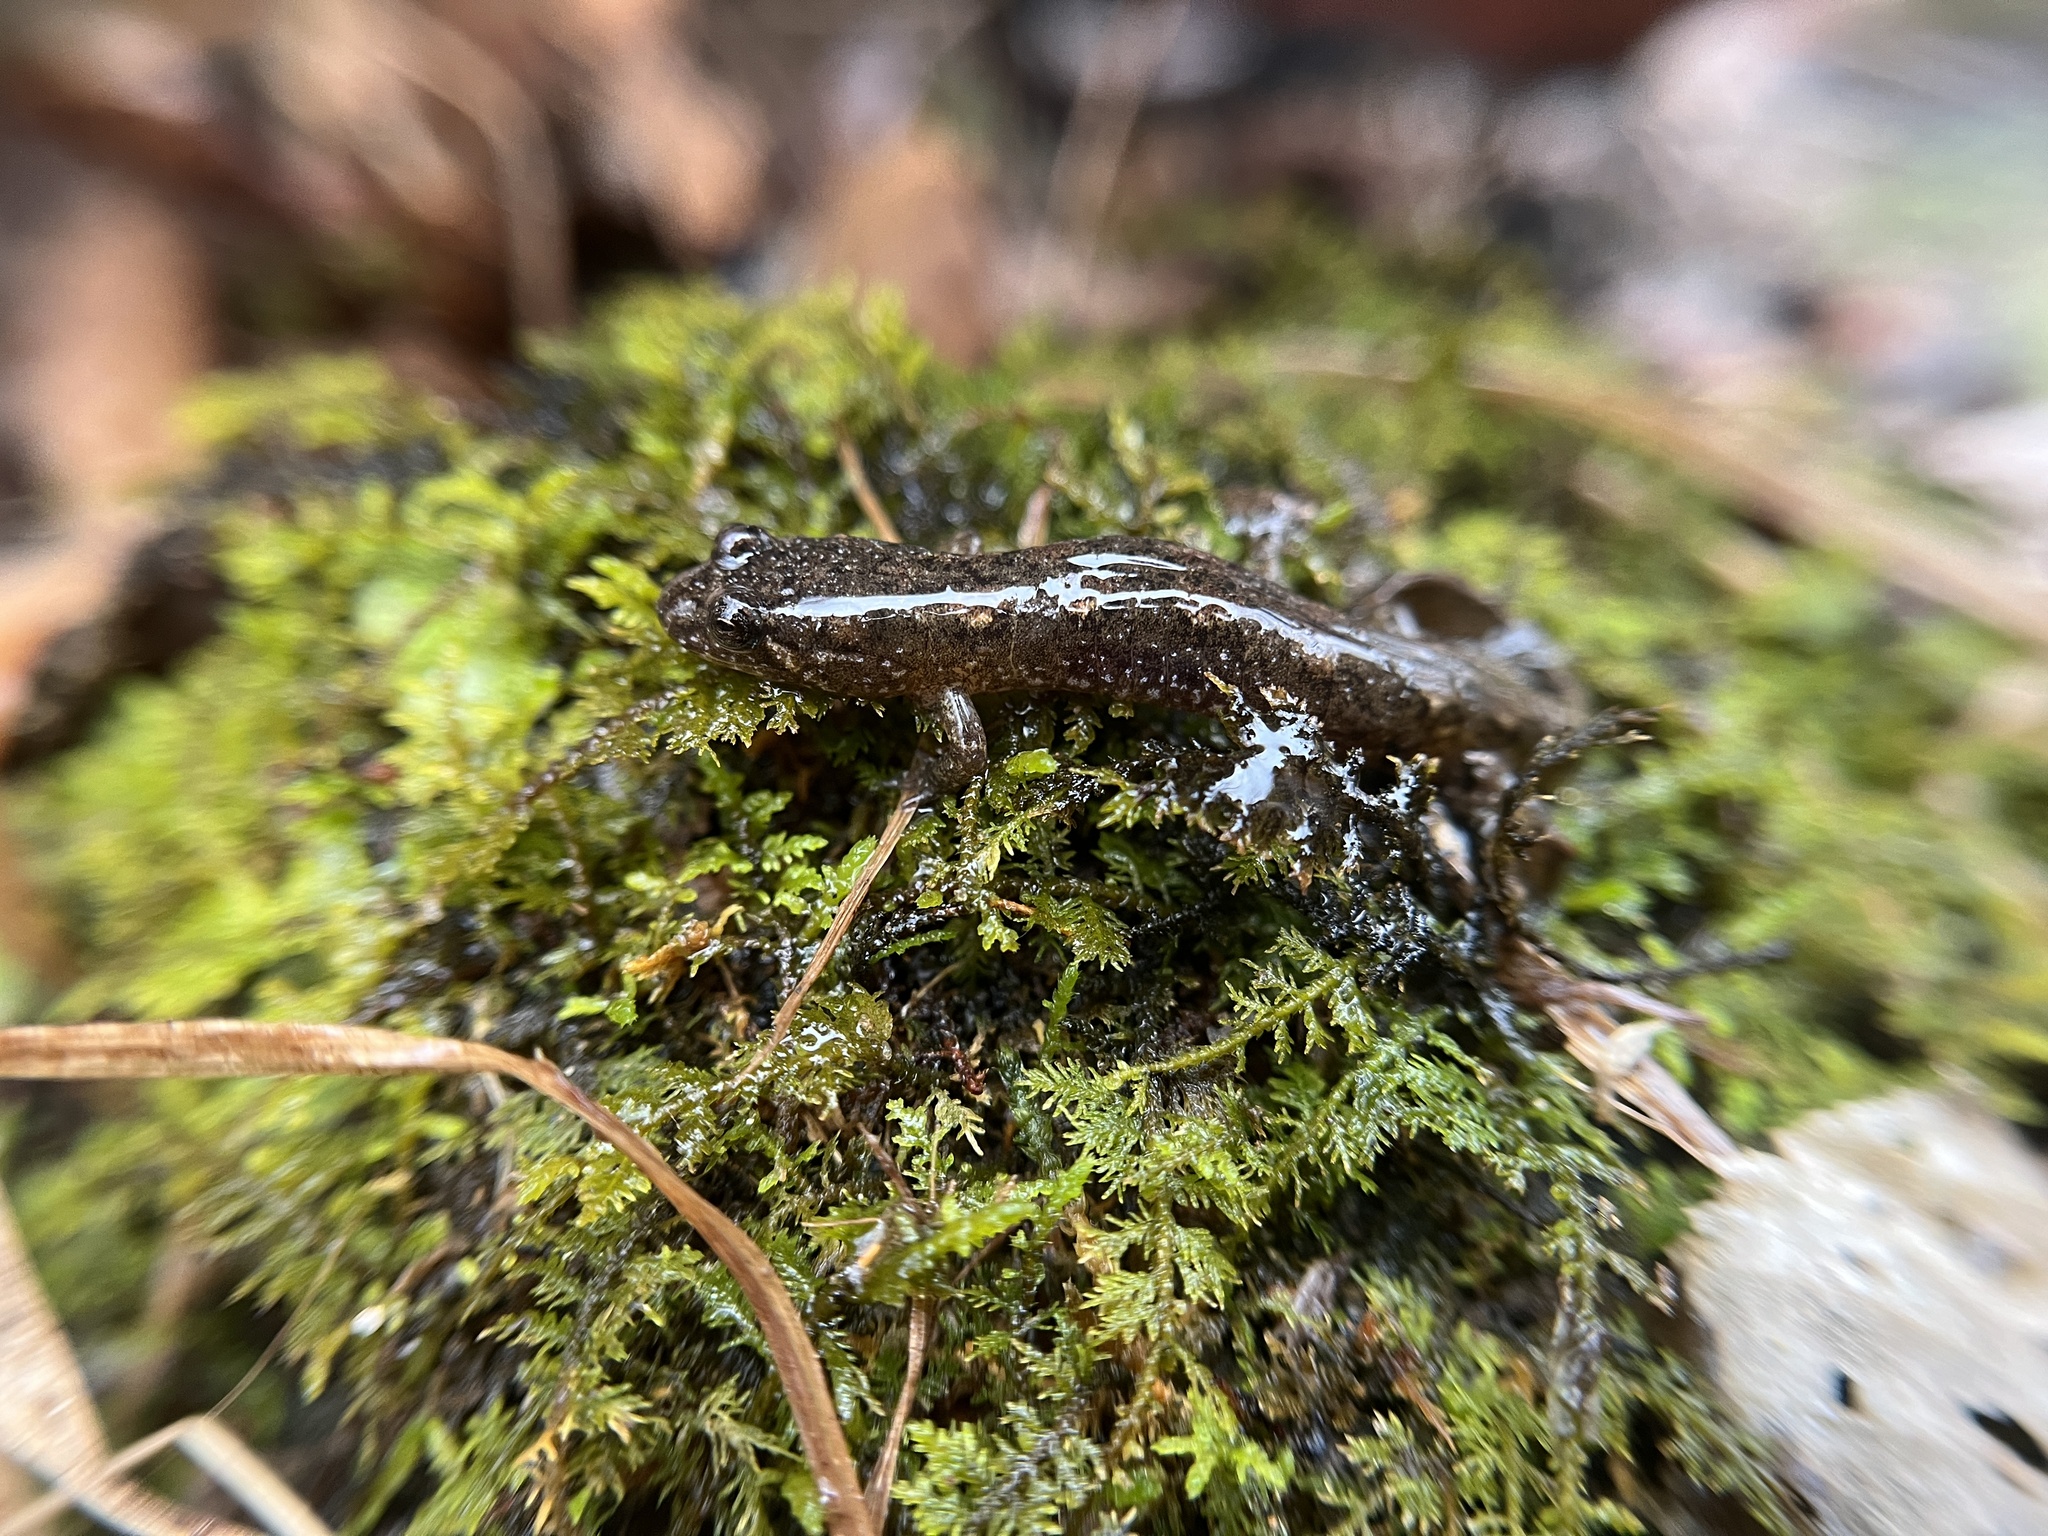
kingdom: Animalia
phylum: Chordata
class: Amphibia
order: Caudata
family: Plethodontidae
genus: Desmognathus
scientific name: Desmognathus planiceps
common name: Flat-headed salamander
